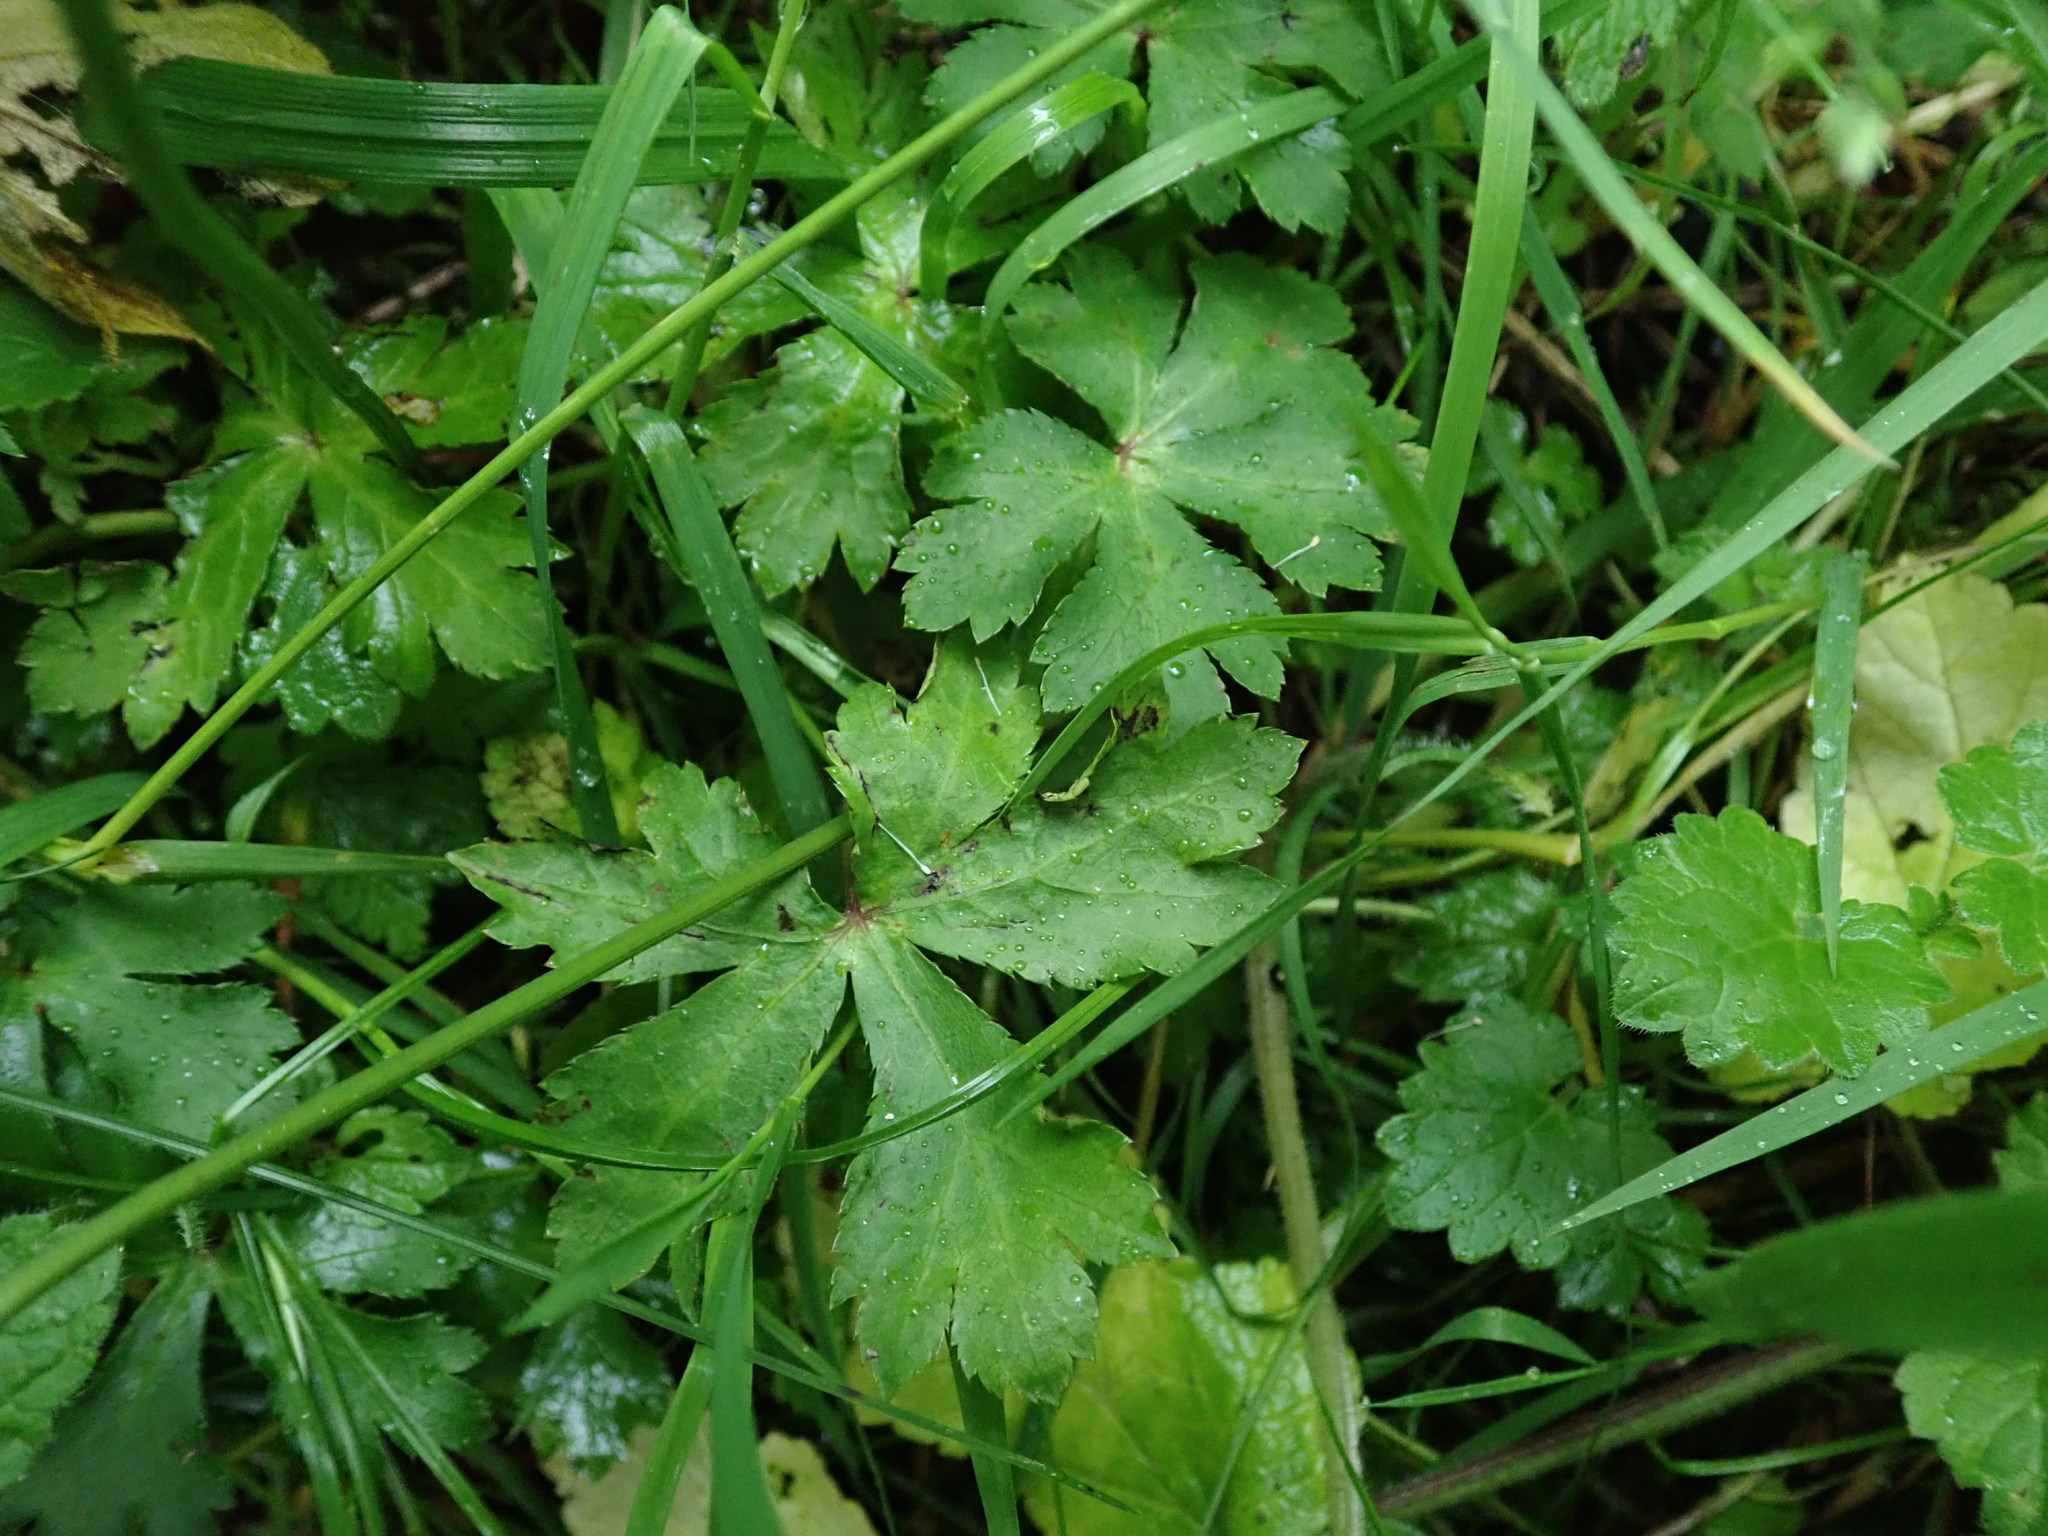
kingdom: Plantae
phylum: Tracheophyta
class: Magnoliopsida
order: Apiales
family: Apiaceae
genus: Sanicula
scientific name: Sanicula europaea
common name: Sanicle
